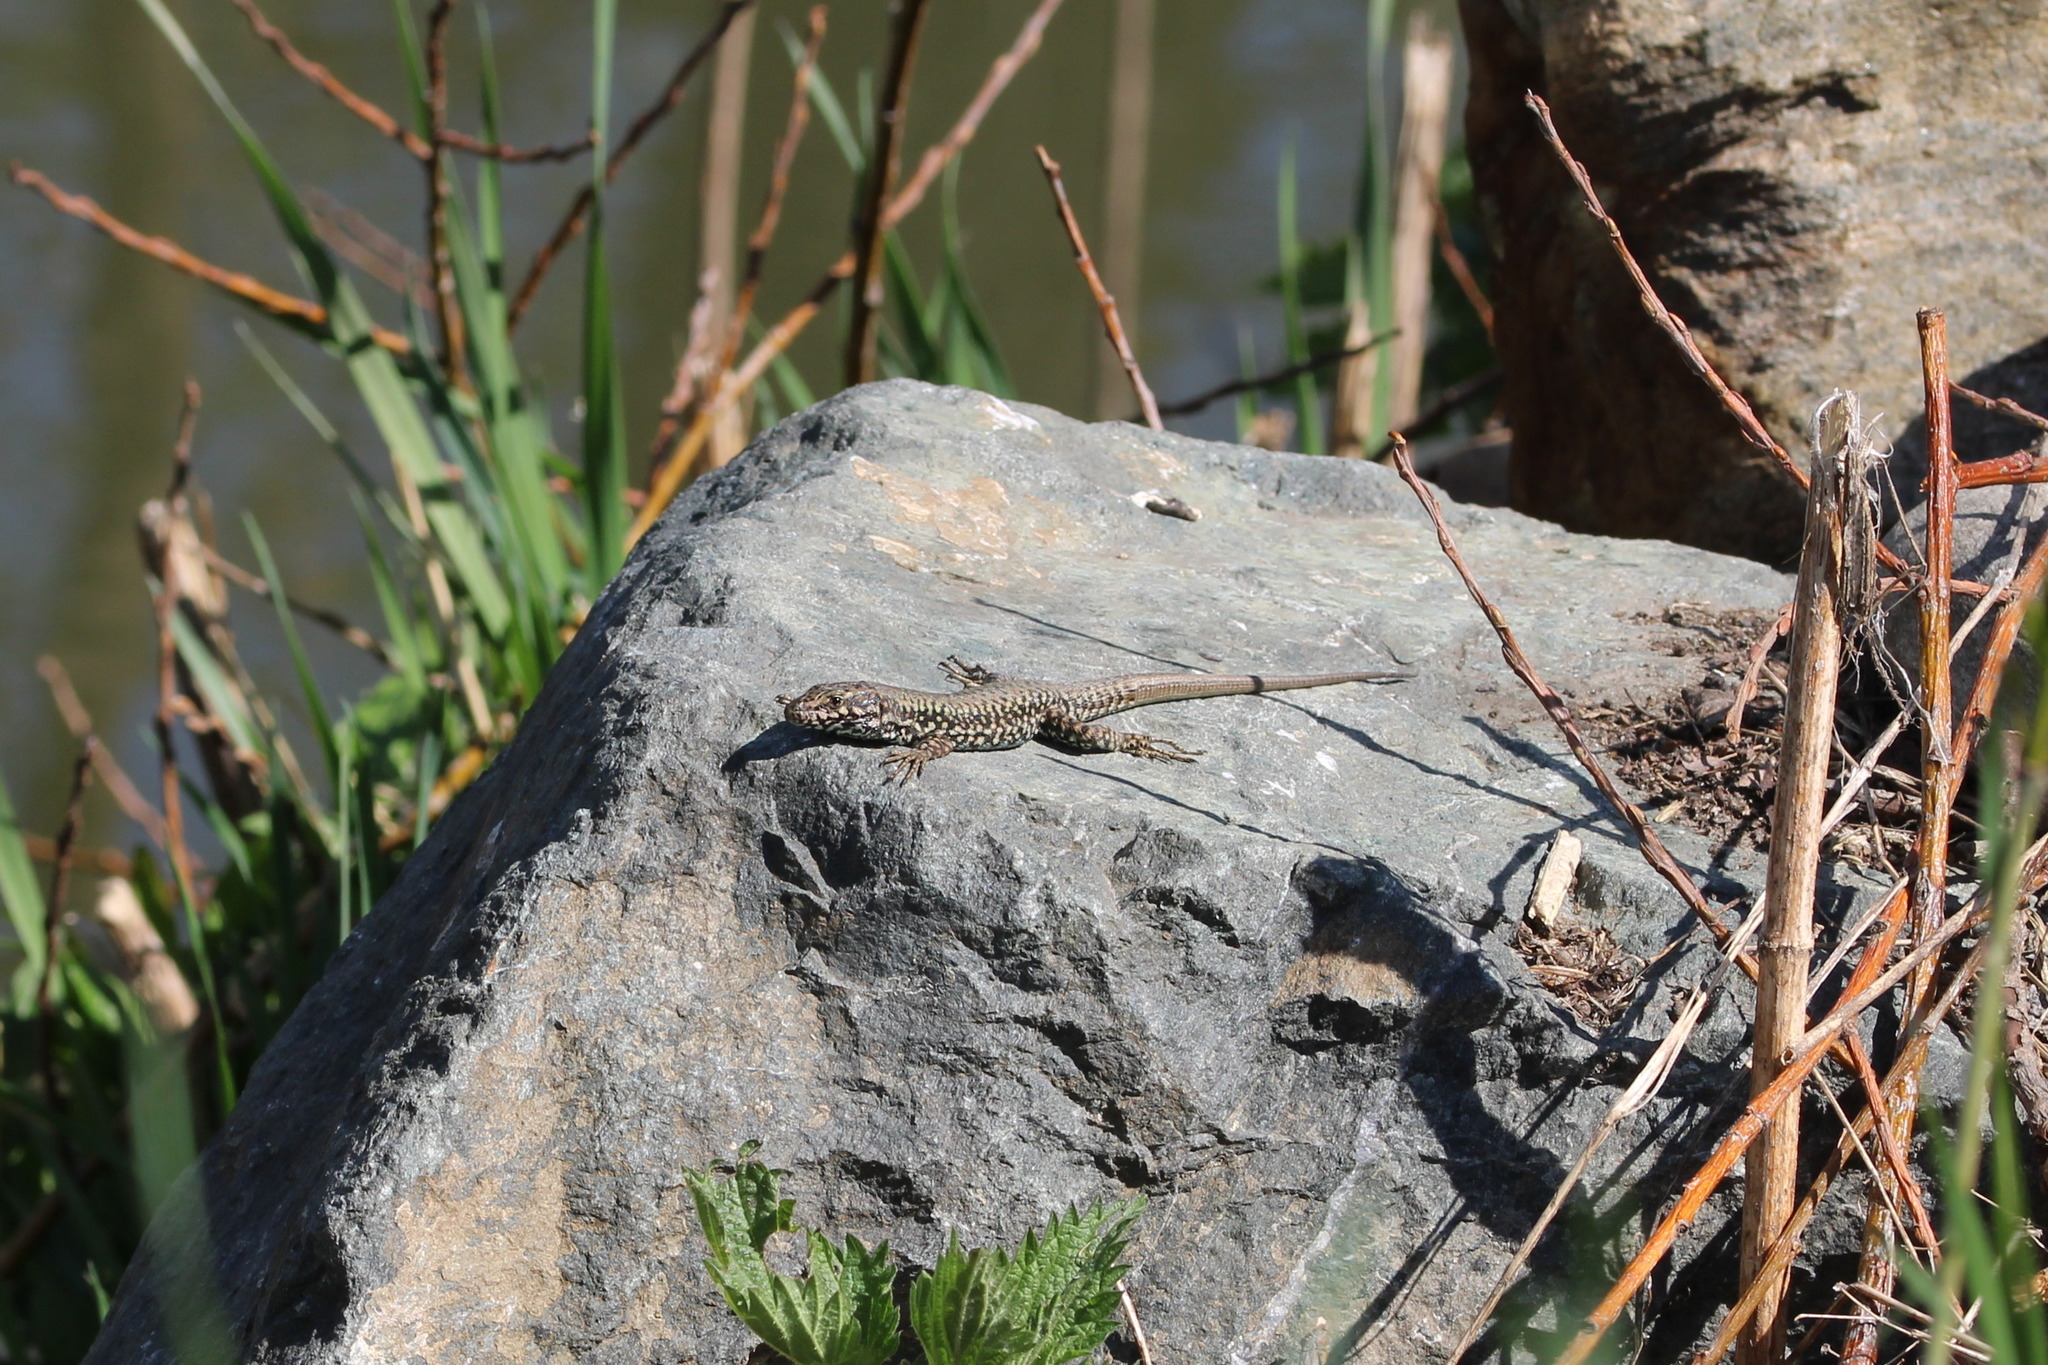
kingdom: Animalia
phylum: Chordata
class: Squamata
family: Lacertidae
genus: Podarcis
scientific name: Podarcis muralis
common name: Common wall lizard
